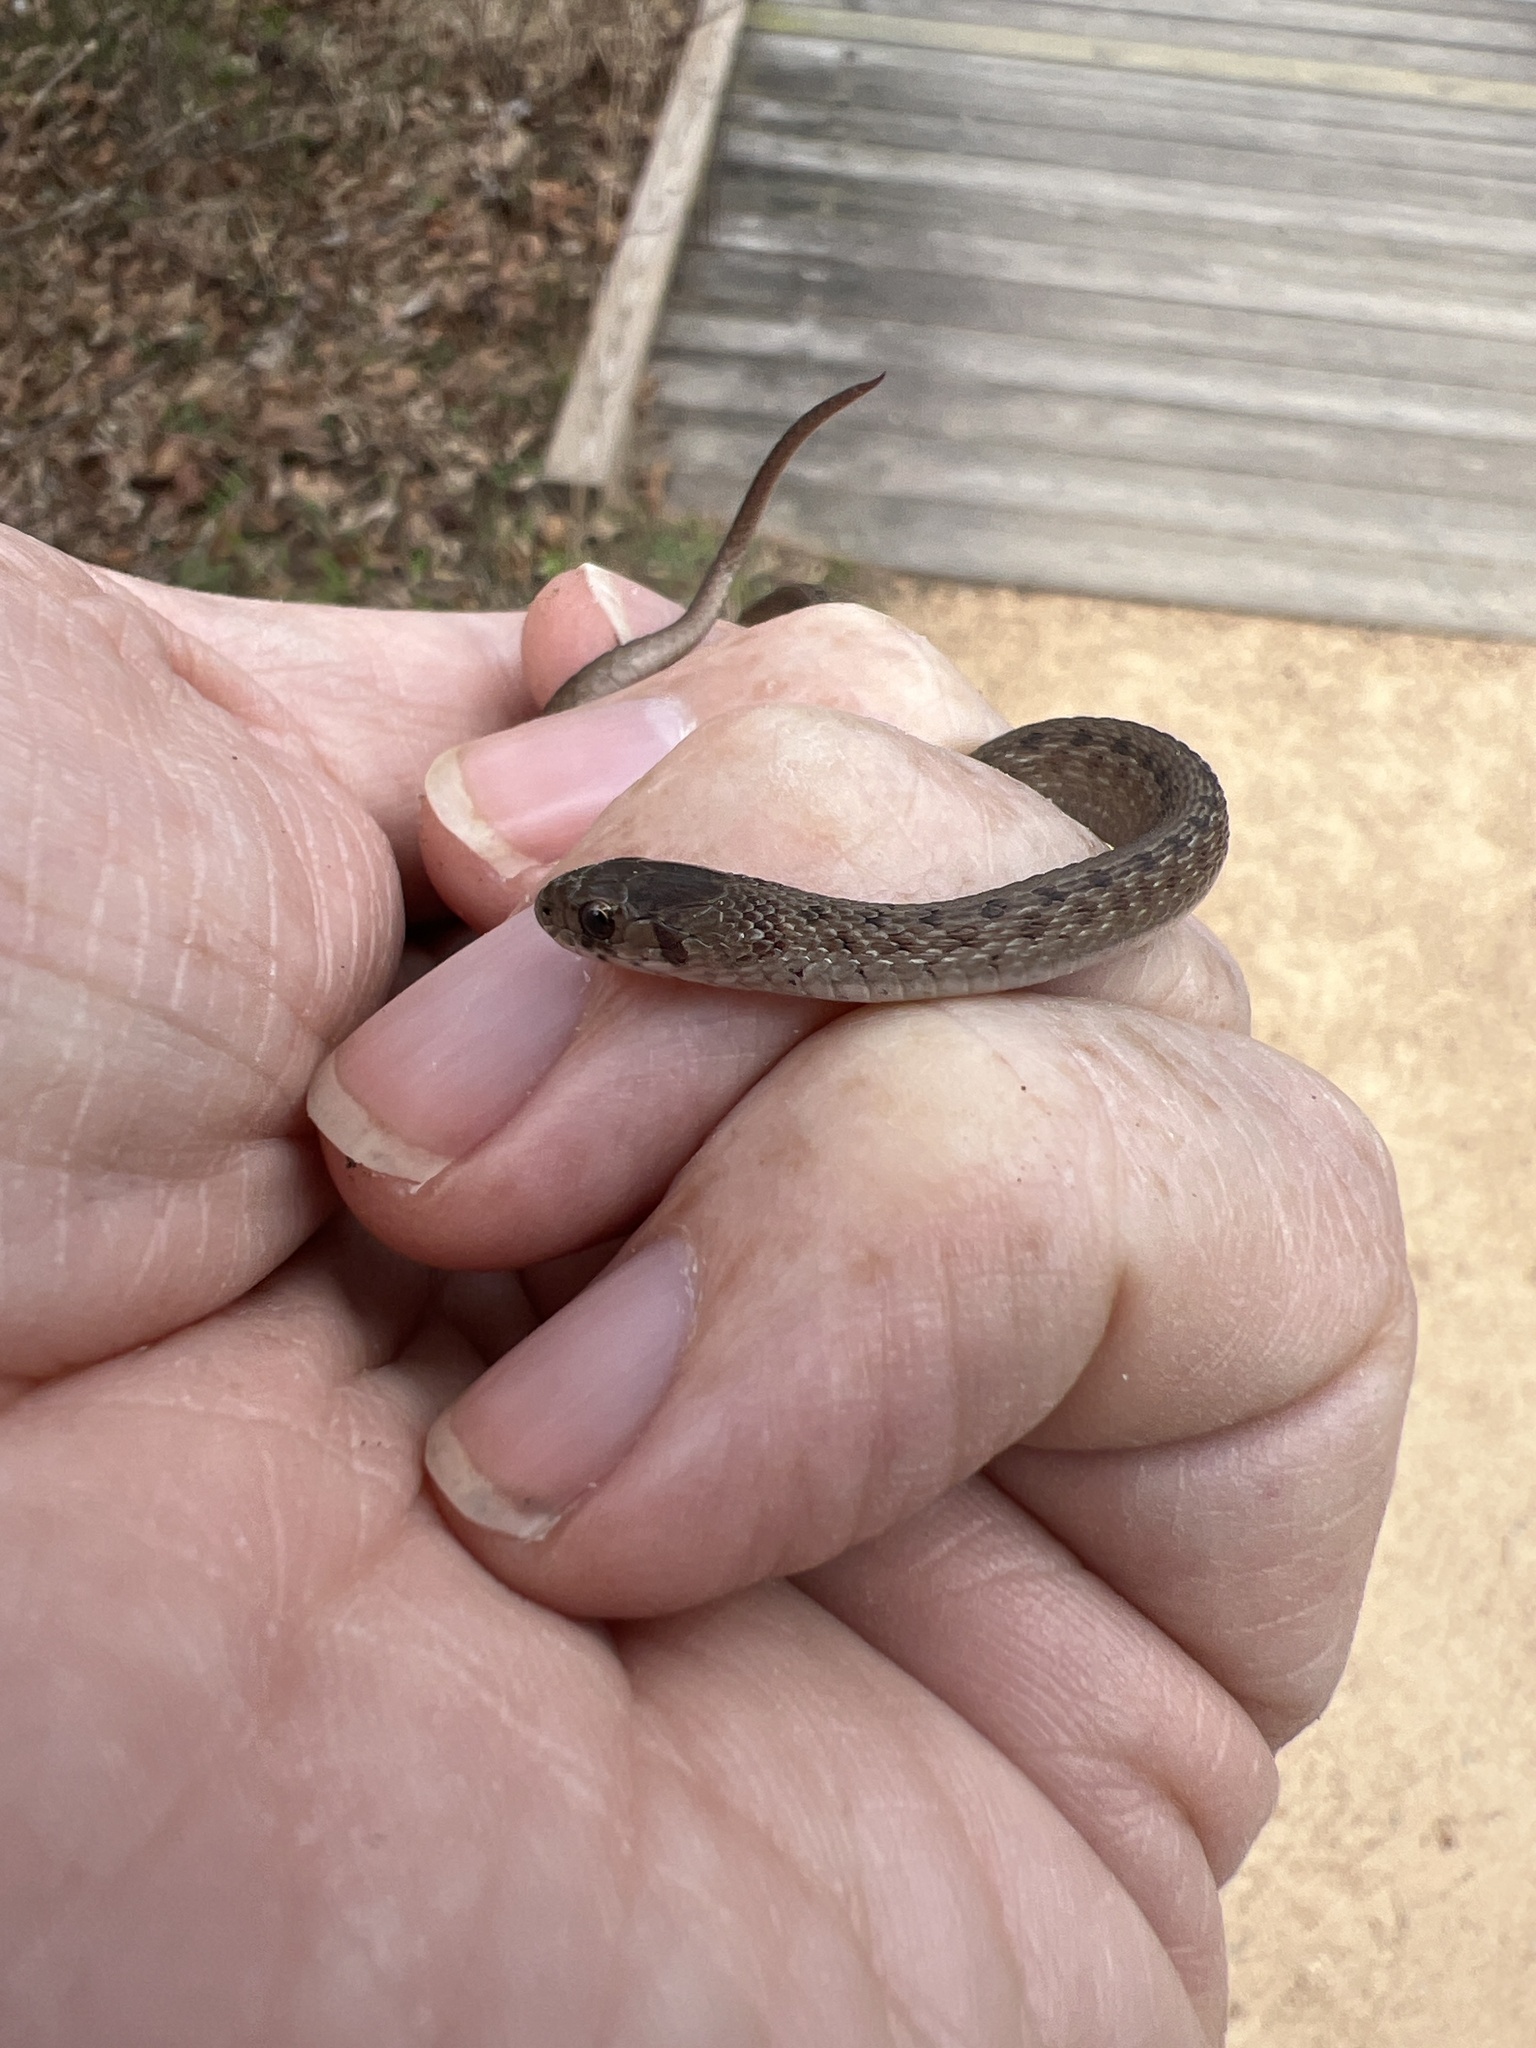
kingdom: Animalia
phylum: Chordata
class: Squamata
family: Colubridae
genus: Storeria
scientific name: Storeria dekayi
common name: (dekay’s) brown snake
